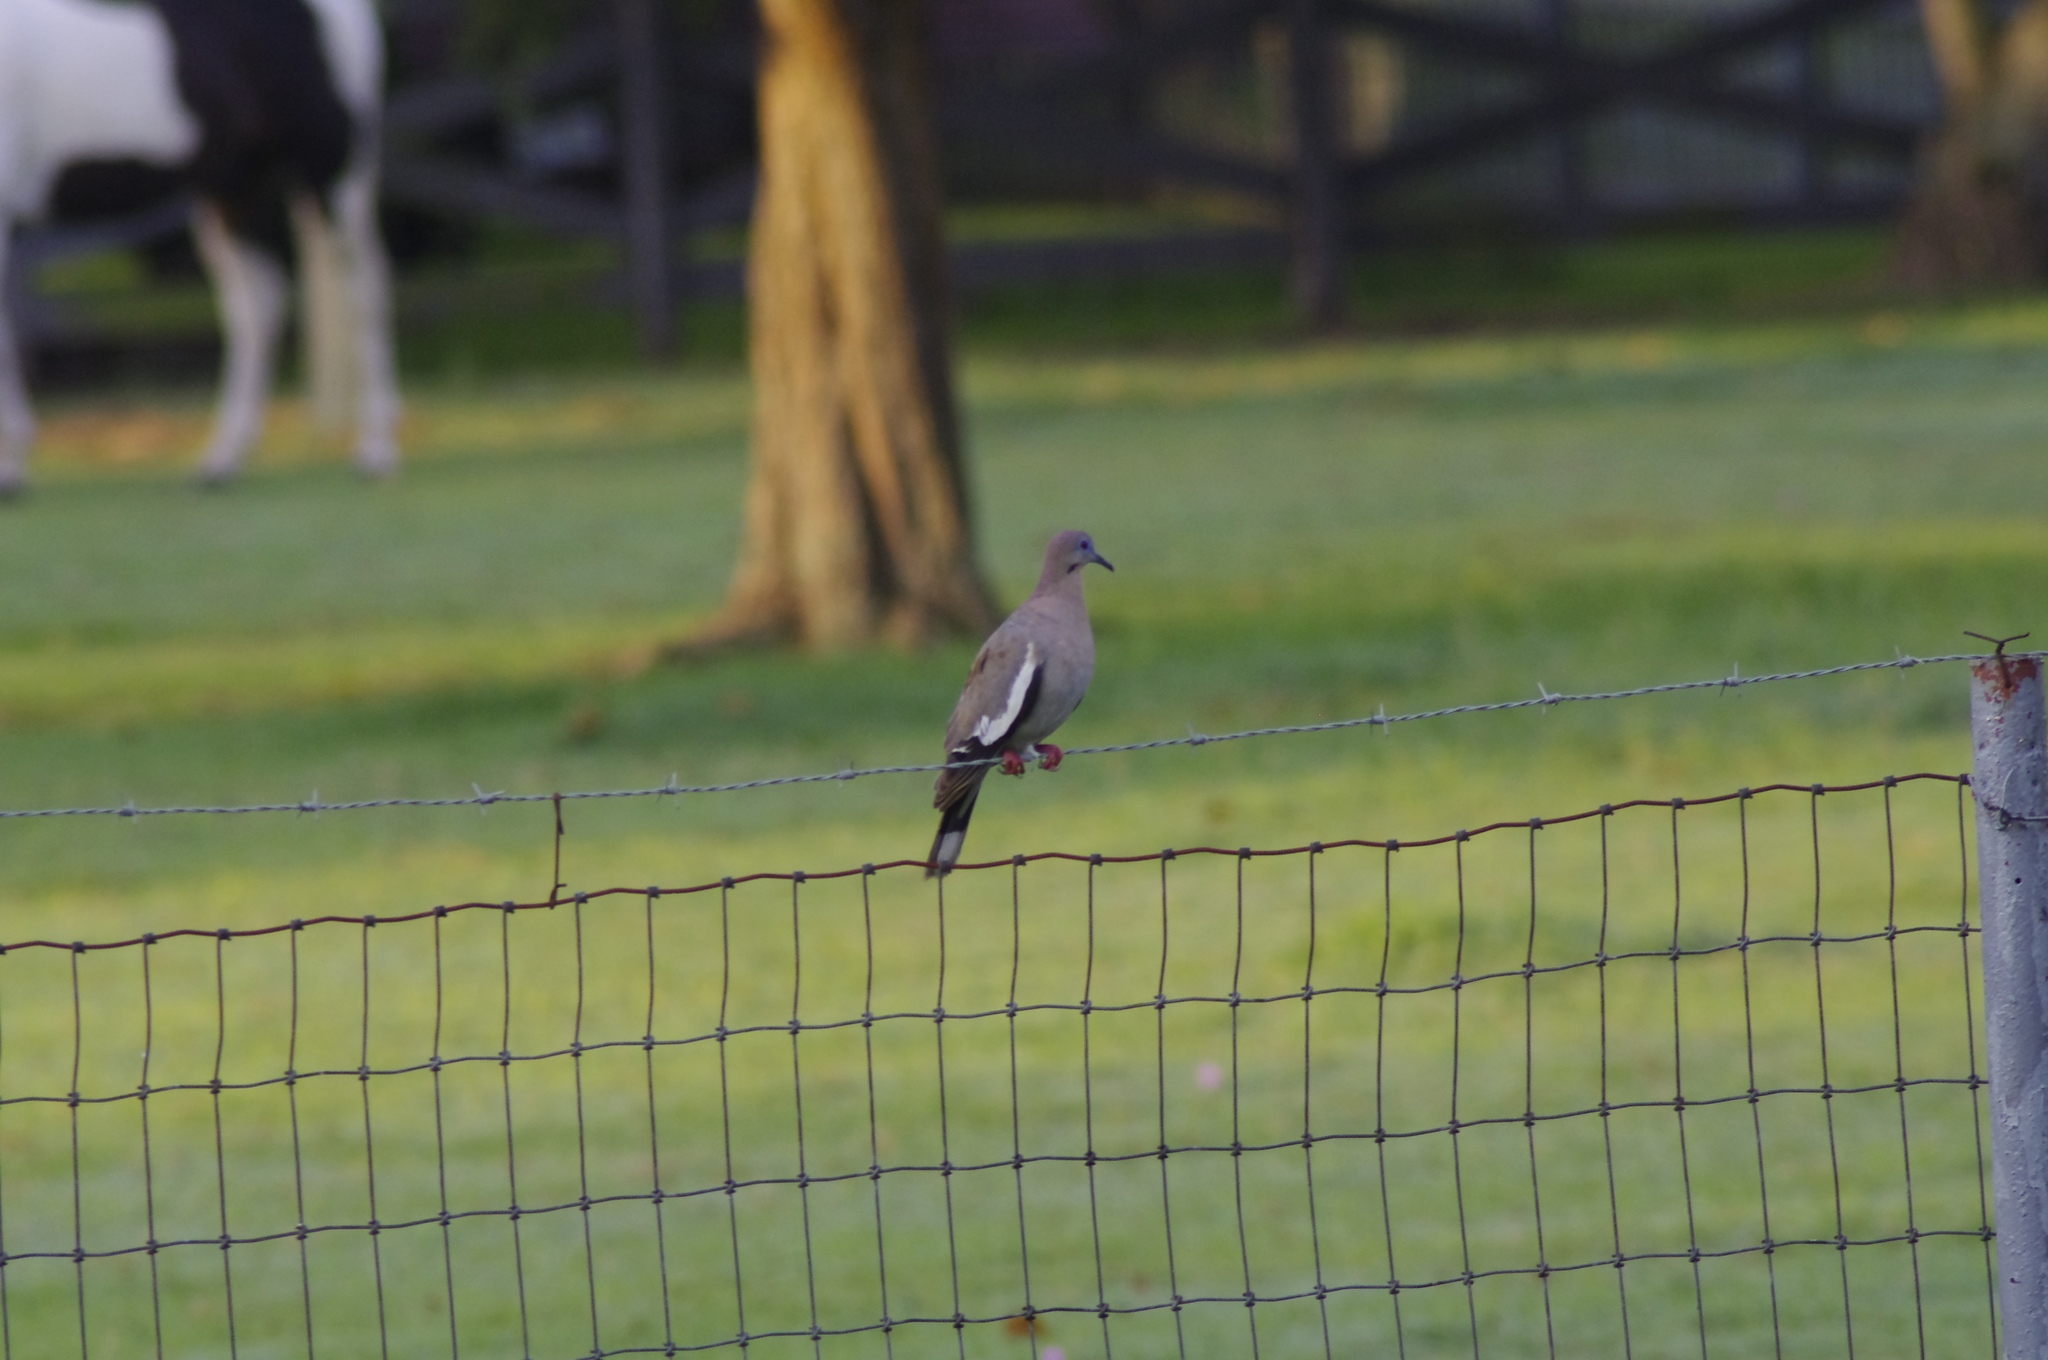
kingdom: Animalia
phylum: Chordata
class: Aves
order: Columbiformes
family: Columbidae
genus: Zenaida
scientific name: Zenaida asiatica
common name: White-winged dove
